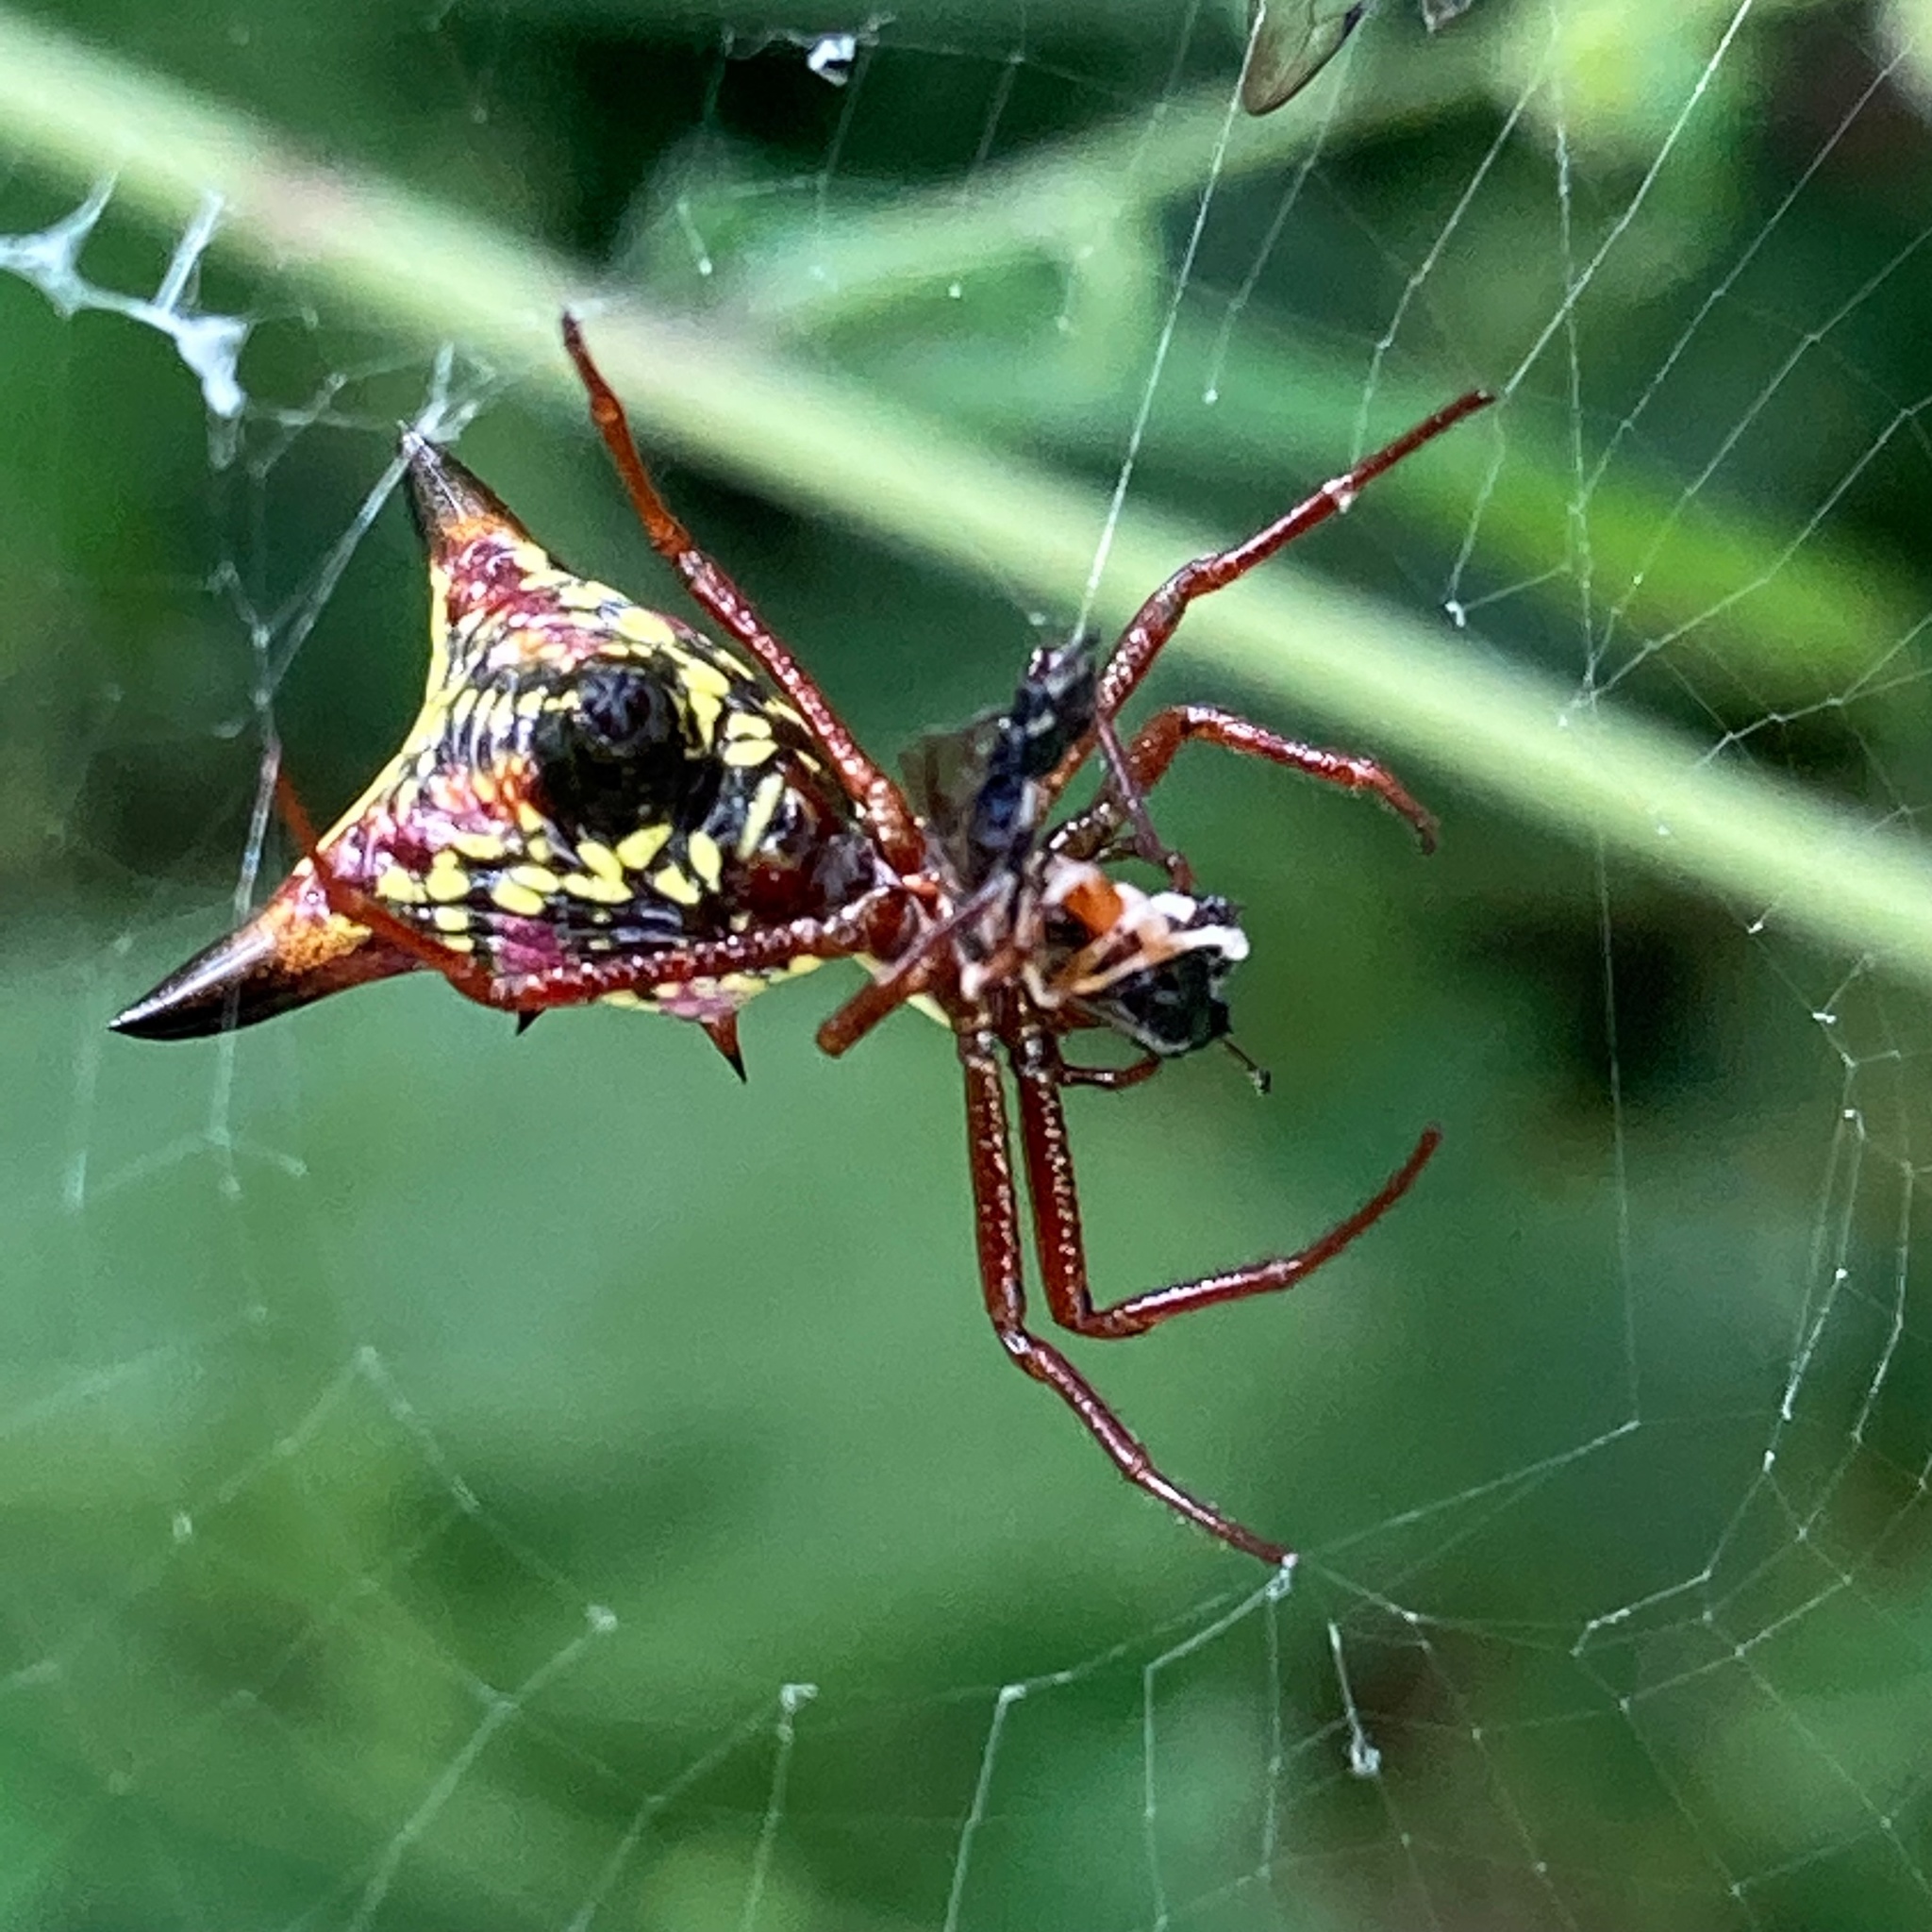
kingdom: Animalia
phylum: Arthropoda
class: Arachnida
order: Araneae
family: Araneidae
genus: Micrathena
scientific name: Micrathena sagittata
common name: Orb weavers
